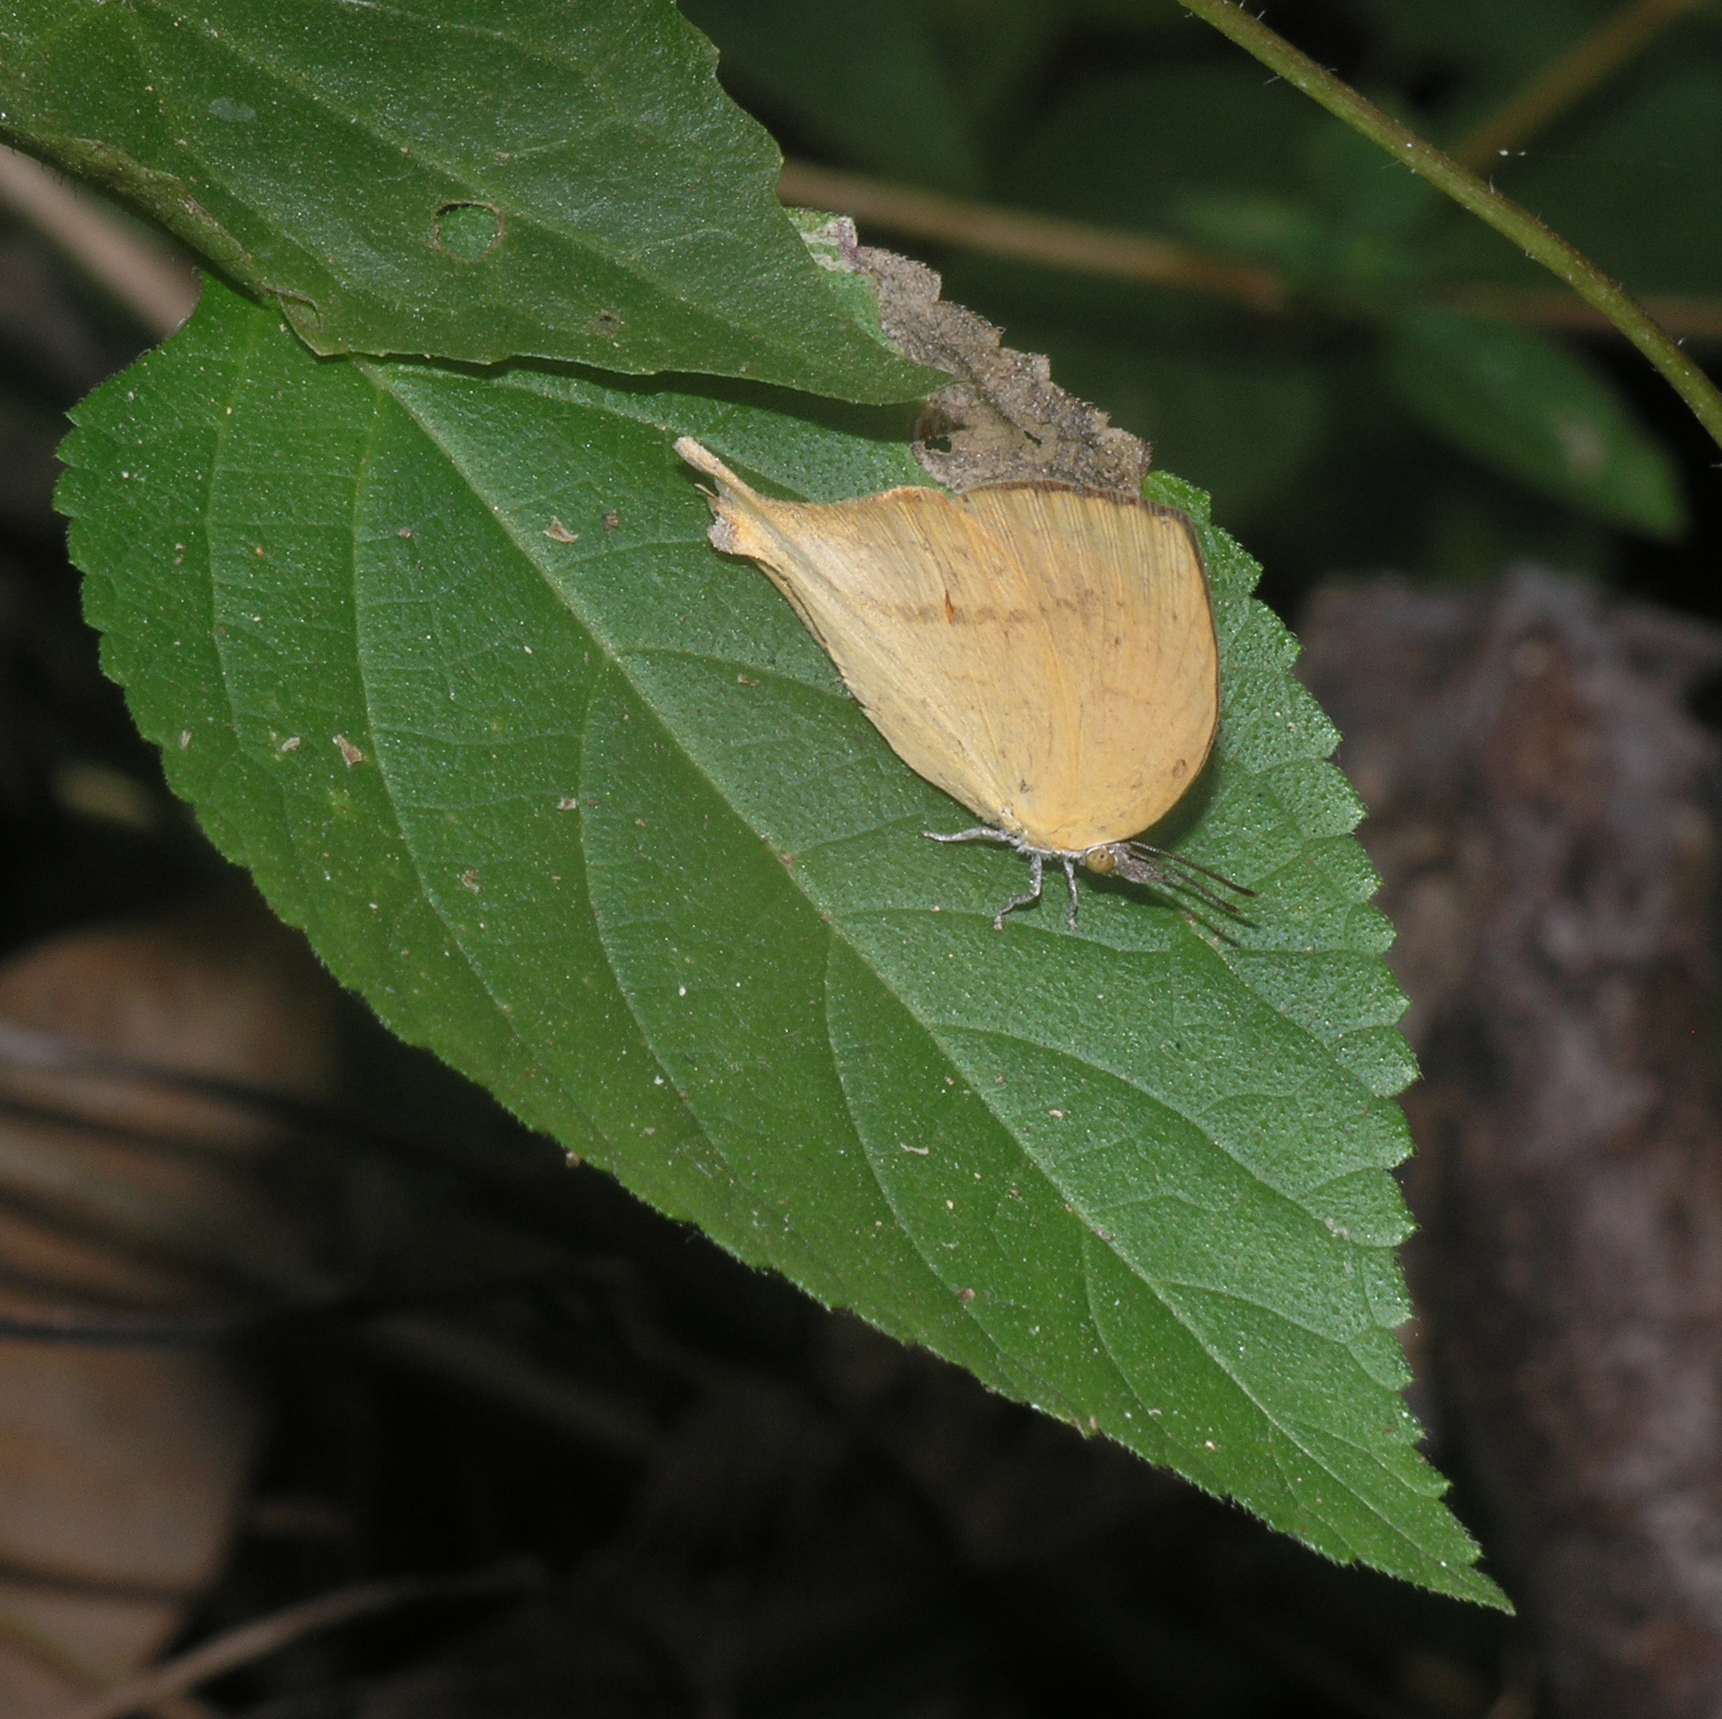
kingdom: Animalia
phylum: Arthropoda
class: Insecta
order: Lepidoptera
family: Lycaenidae
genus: Loxura
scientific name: Loxura atymnus
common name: Common yamfly
